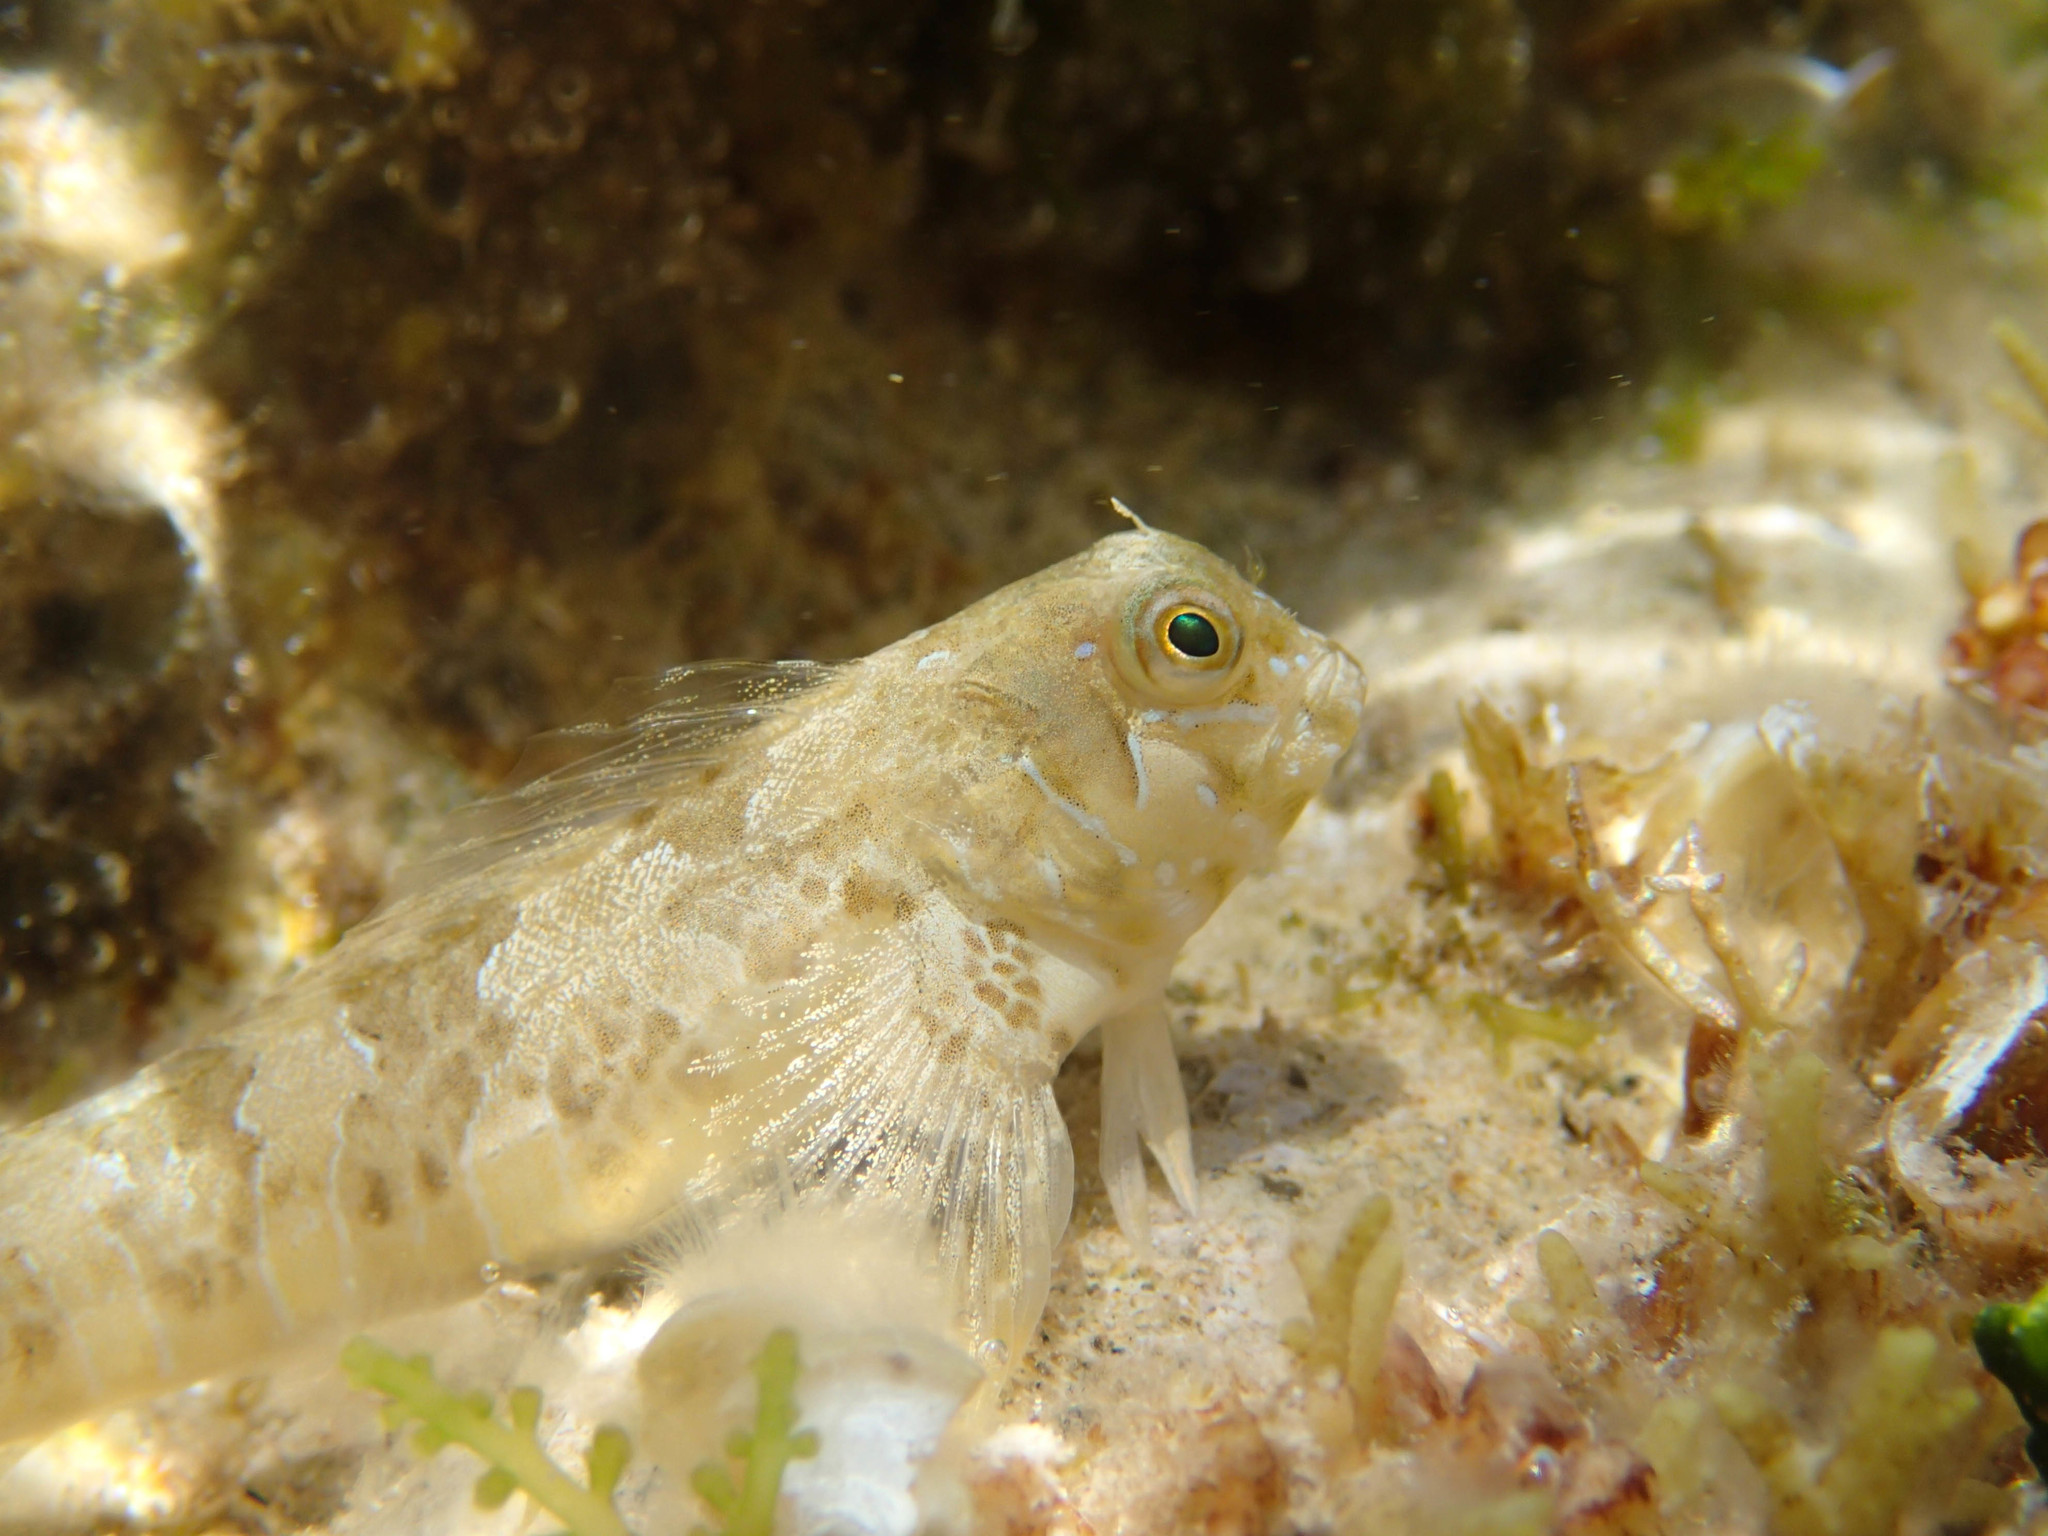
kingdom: Animalia
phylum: Chordata
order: Perciformes
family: Blenniidae
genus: Aidablennius
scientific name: Aidablennius sphynx
